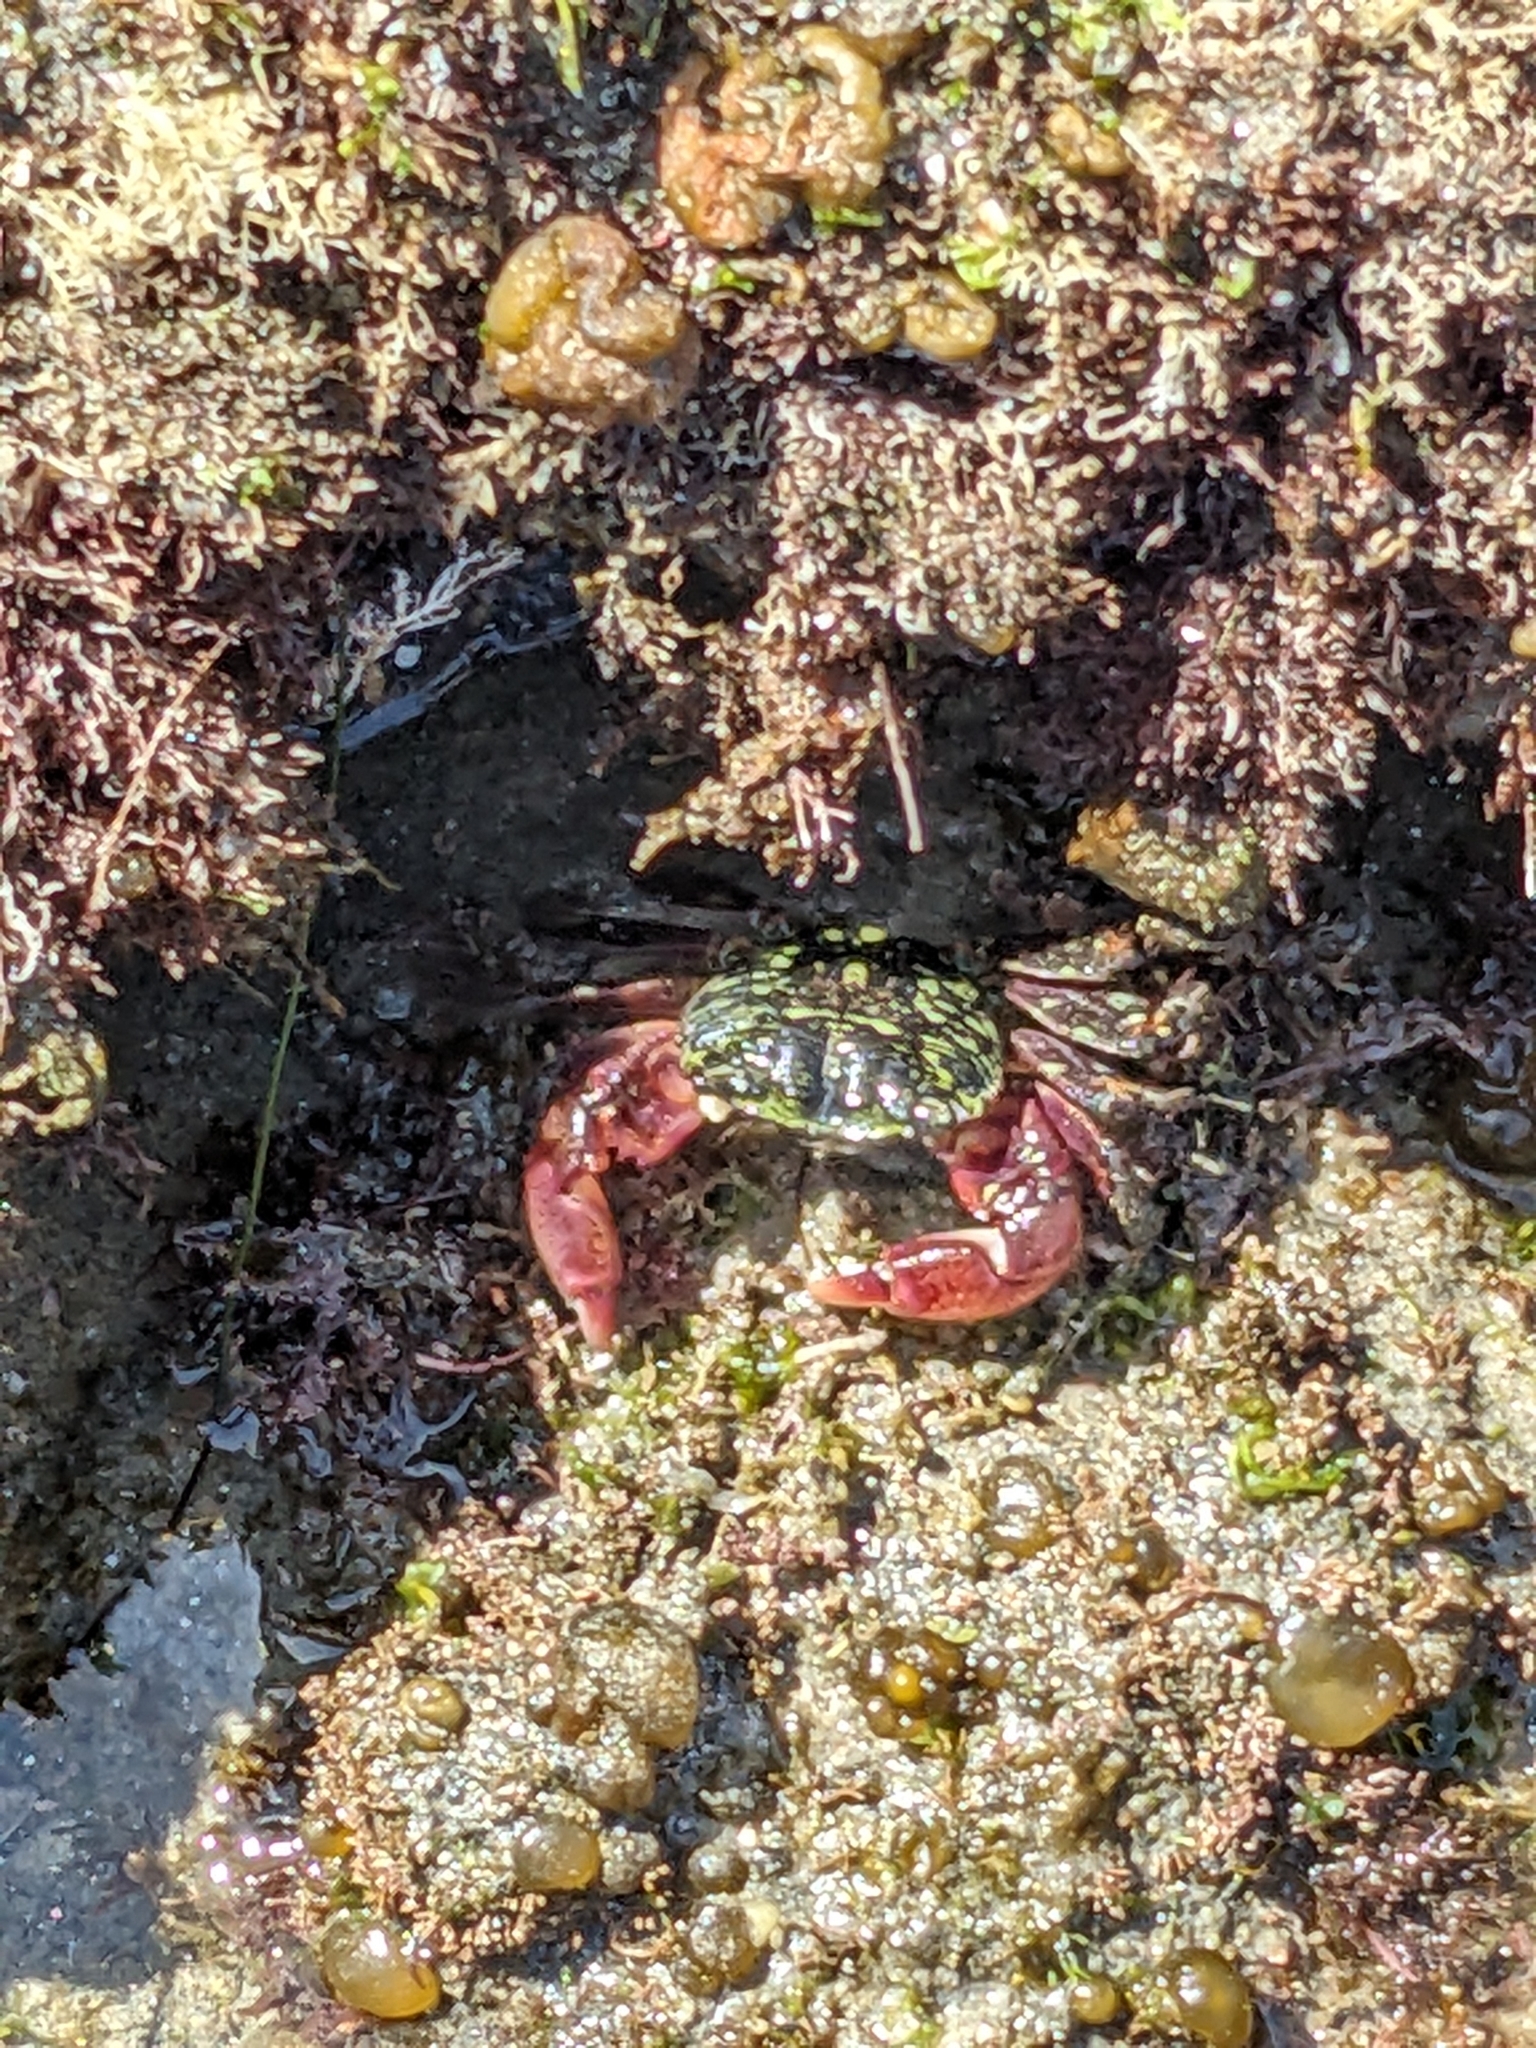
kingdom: Animalia
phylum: Arthropoda
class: Malacostraca
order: Decapoda
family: Grapsidae
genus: Pachygrapsus
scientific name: Pachygrapsus crassipes
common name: Striped shore crab
